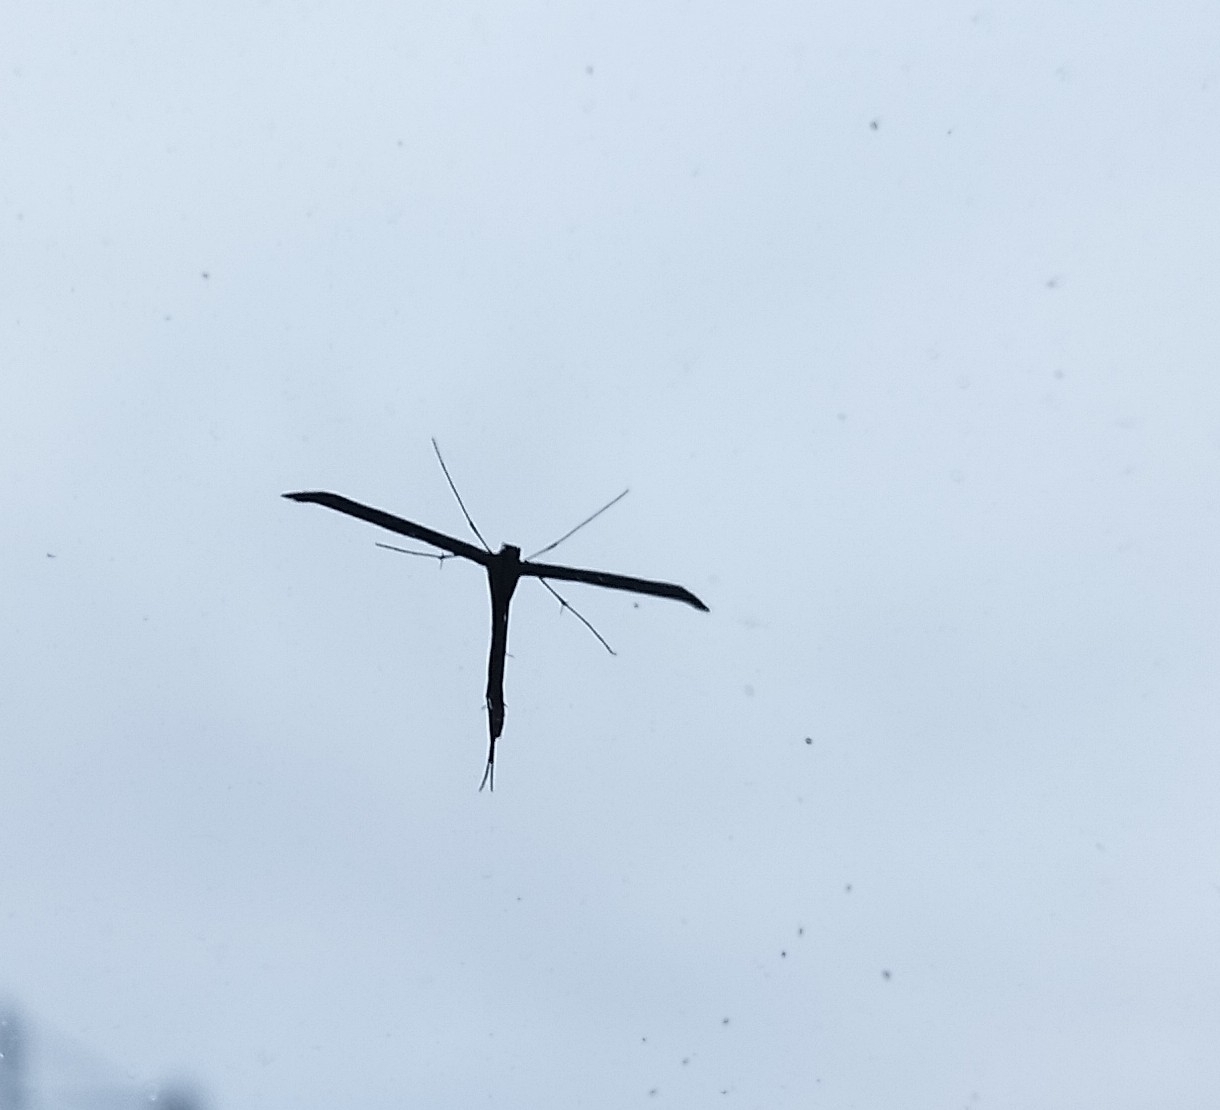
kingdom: Animalia
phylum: Arthropoda
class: Insecta
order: Lepidoptera
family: Pterophoridae
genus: Emmelina
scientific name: Emmelina monodactyla
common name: Common plume
